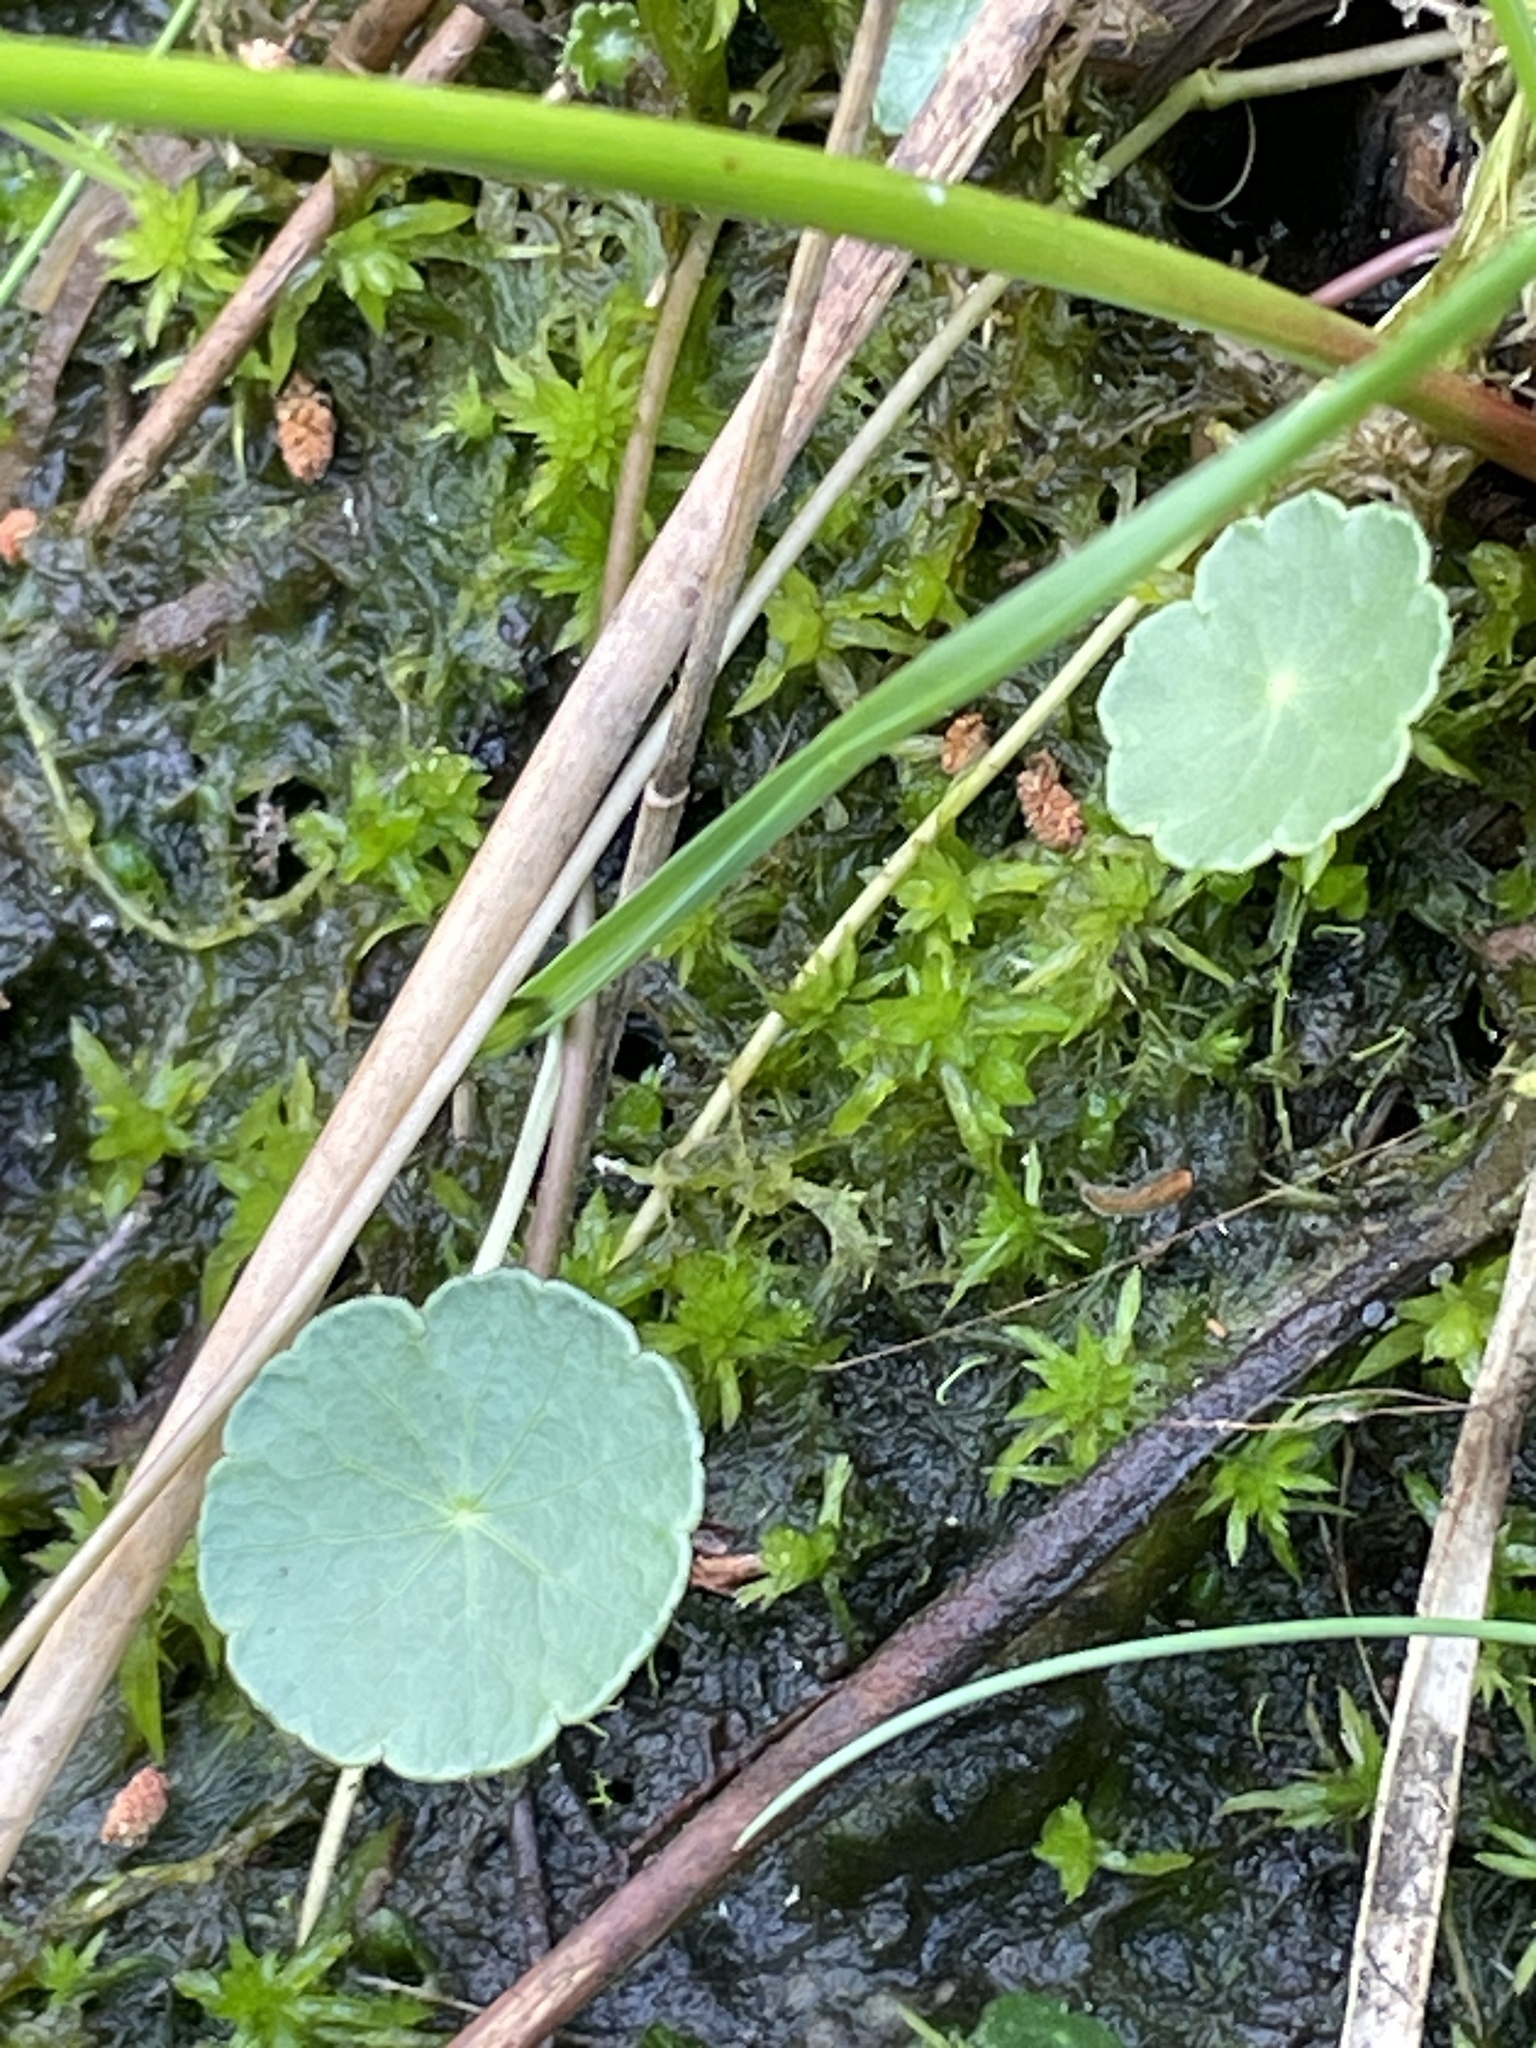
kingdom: Plantae
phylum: Tracheophyta
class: Magnoliopsida
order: Apiales
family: Araliaceae
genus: Hydrocotyle
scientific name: Hydrocotyle vulgaris
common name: Marsh pennywort
